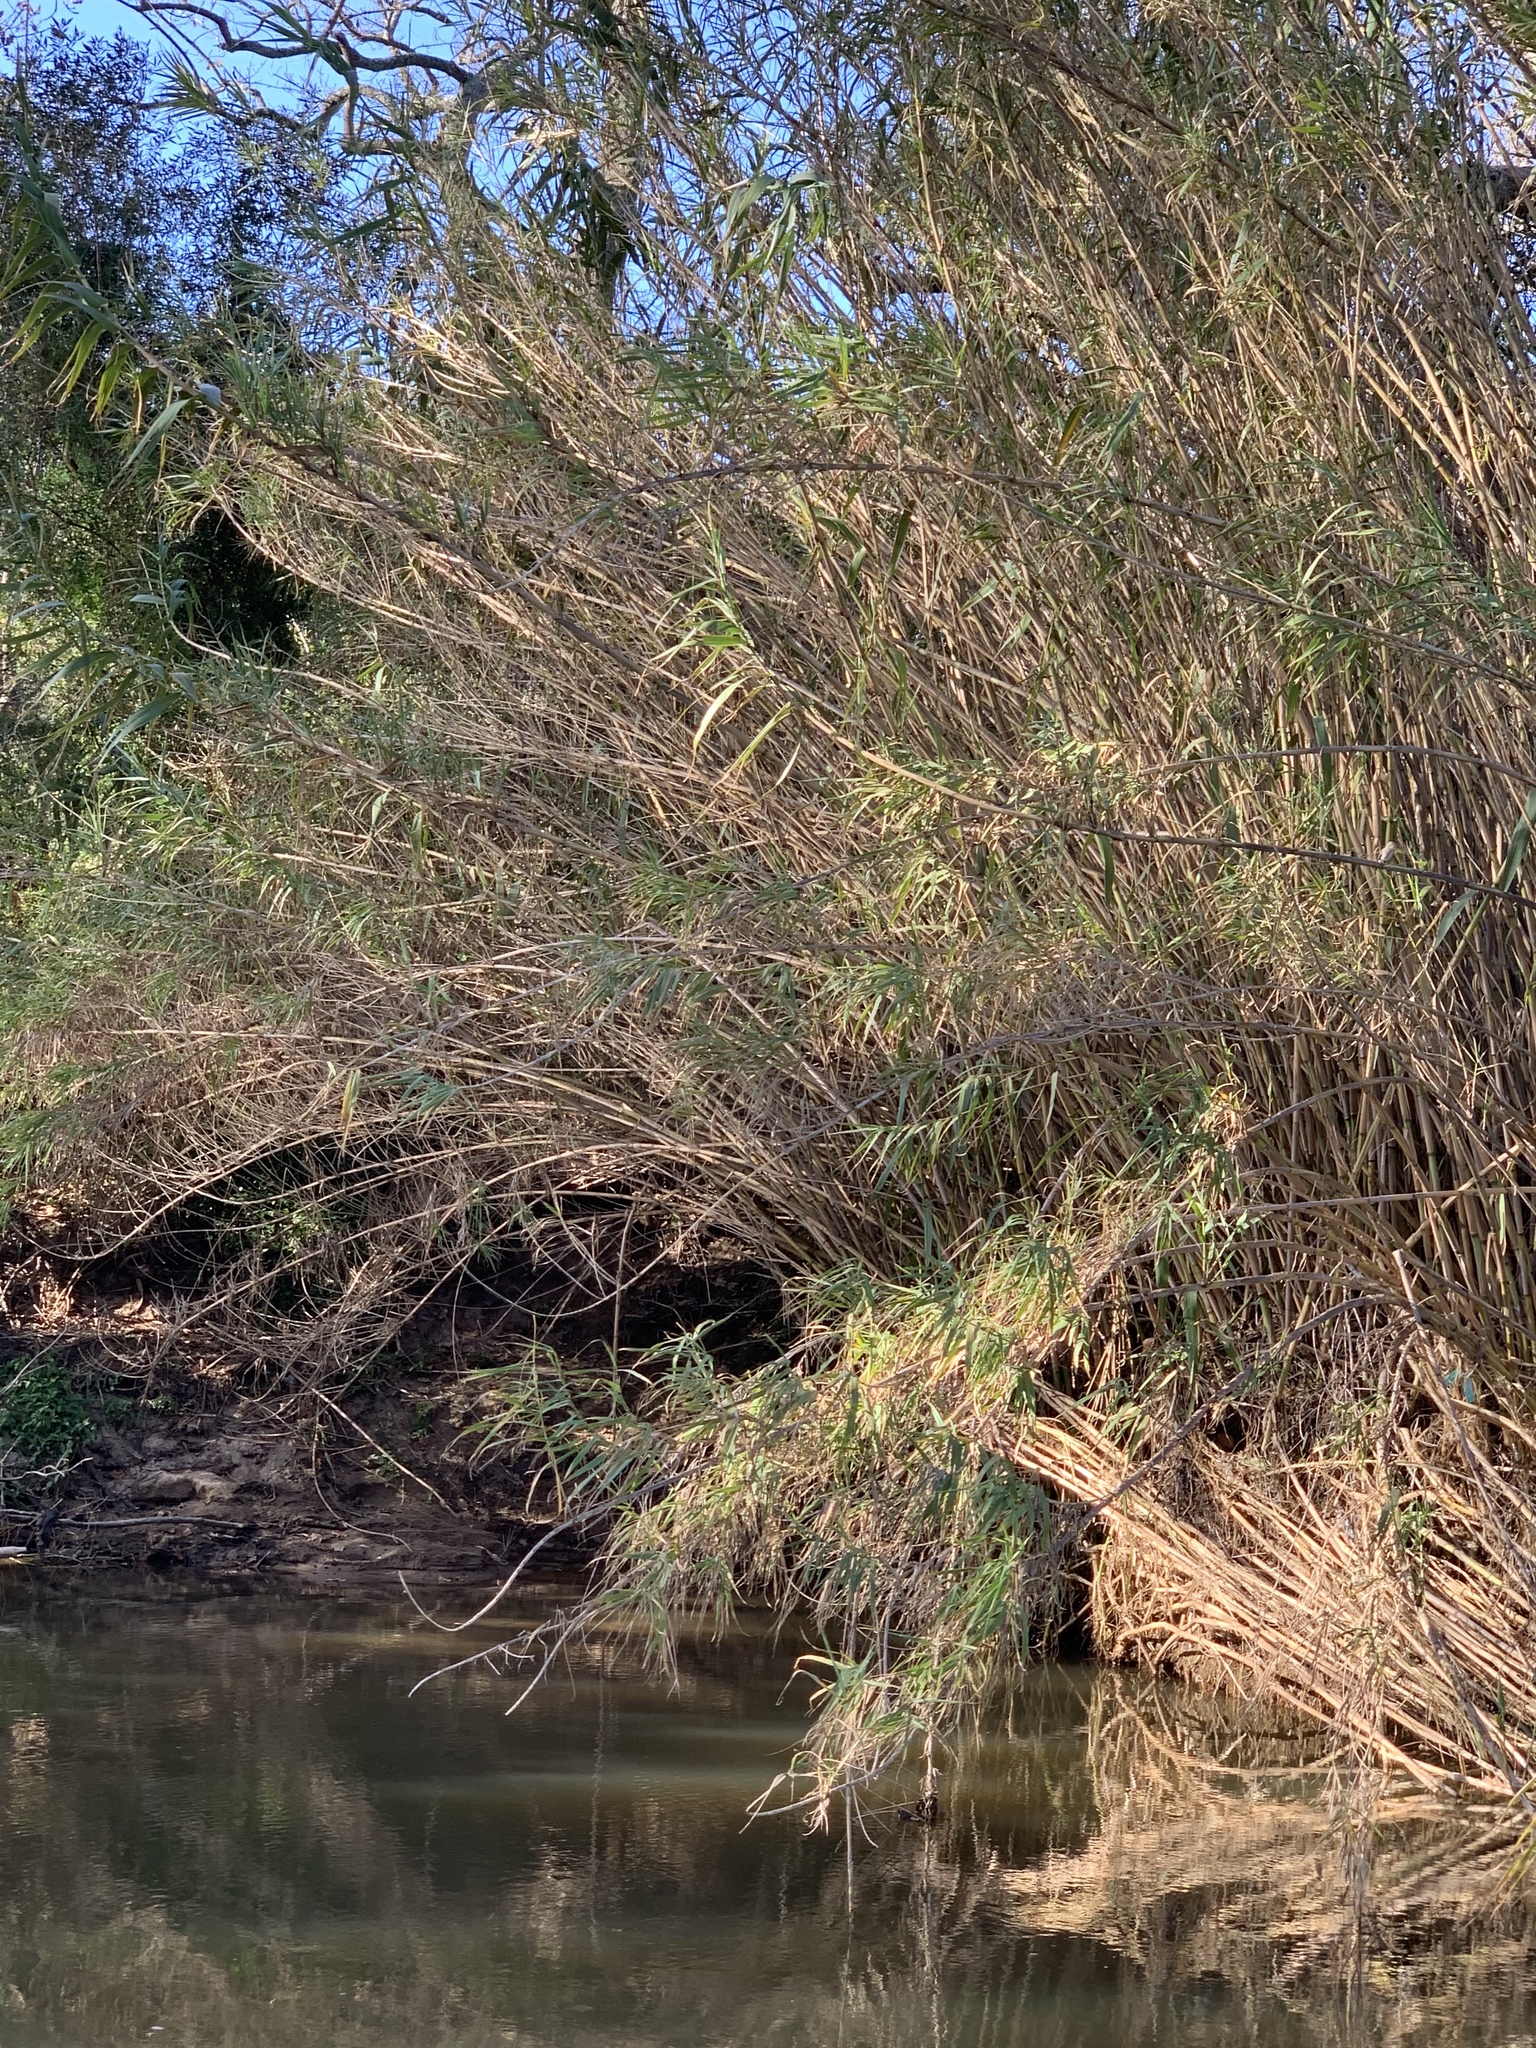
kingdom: Plantae
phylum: Tracheophyta
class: Liliopsida
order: Poales
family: Poaceae
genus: Arundo
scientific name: Arundo donax
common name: Giant reed
